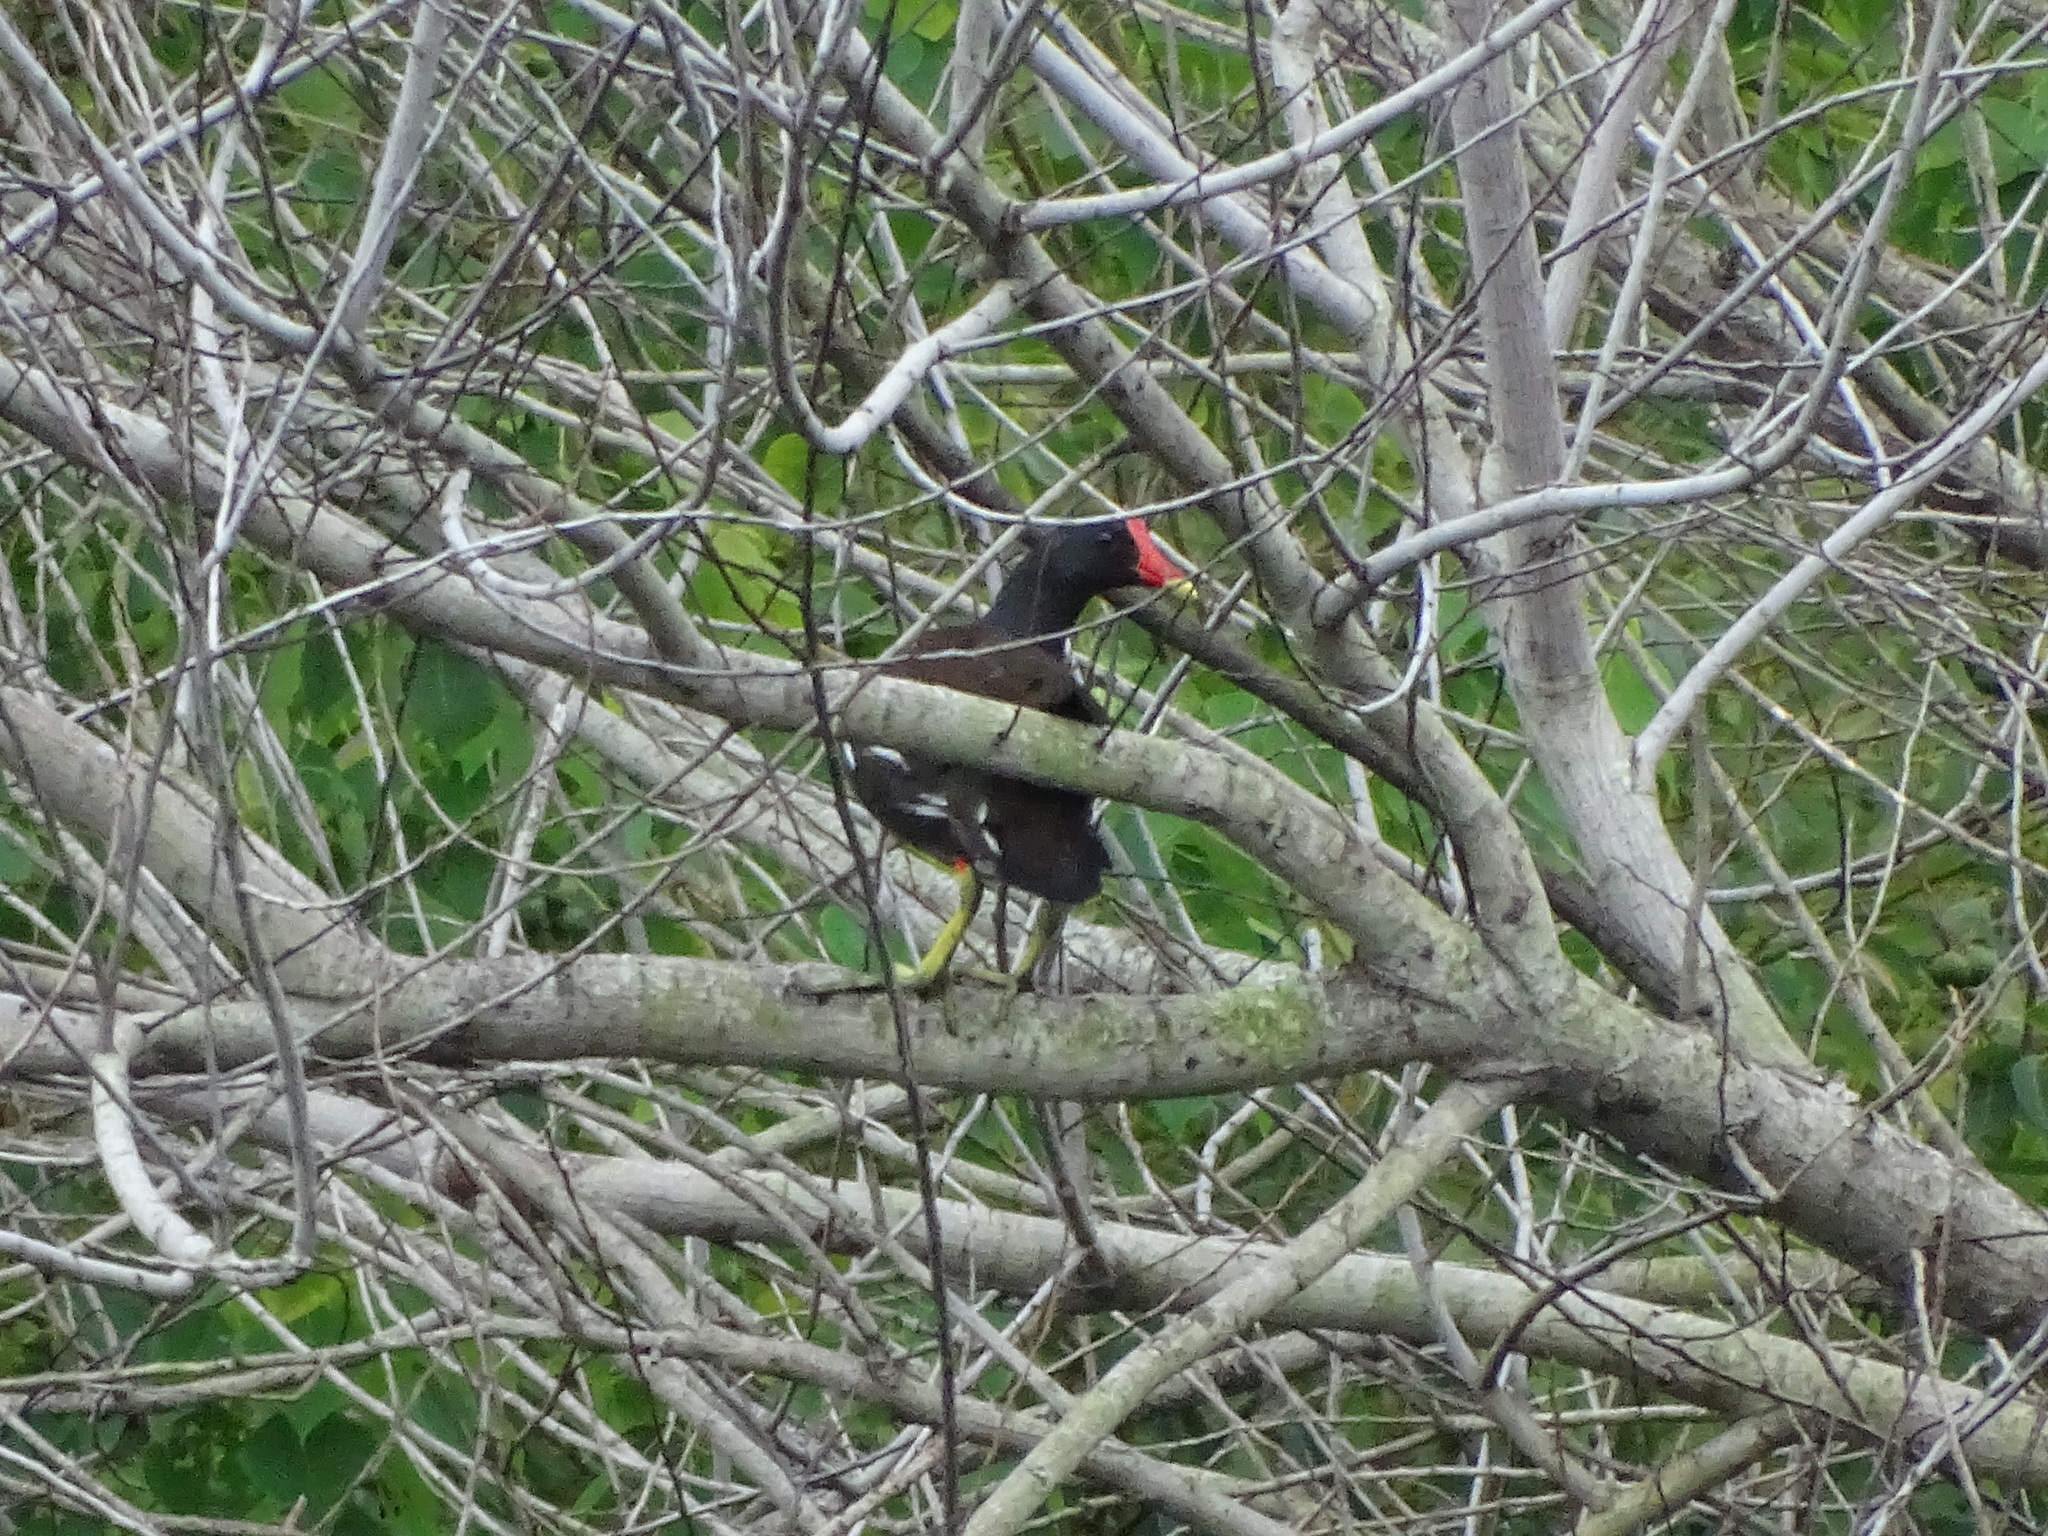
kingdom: Animalia
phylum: Chordata
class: Aves
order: Gruiformes
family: Rallidae
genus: Gallinula
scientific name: Gallinula chloropus
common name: Common moorhen
